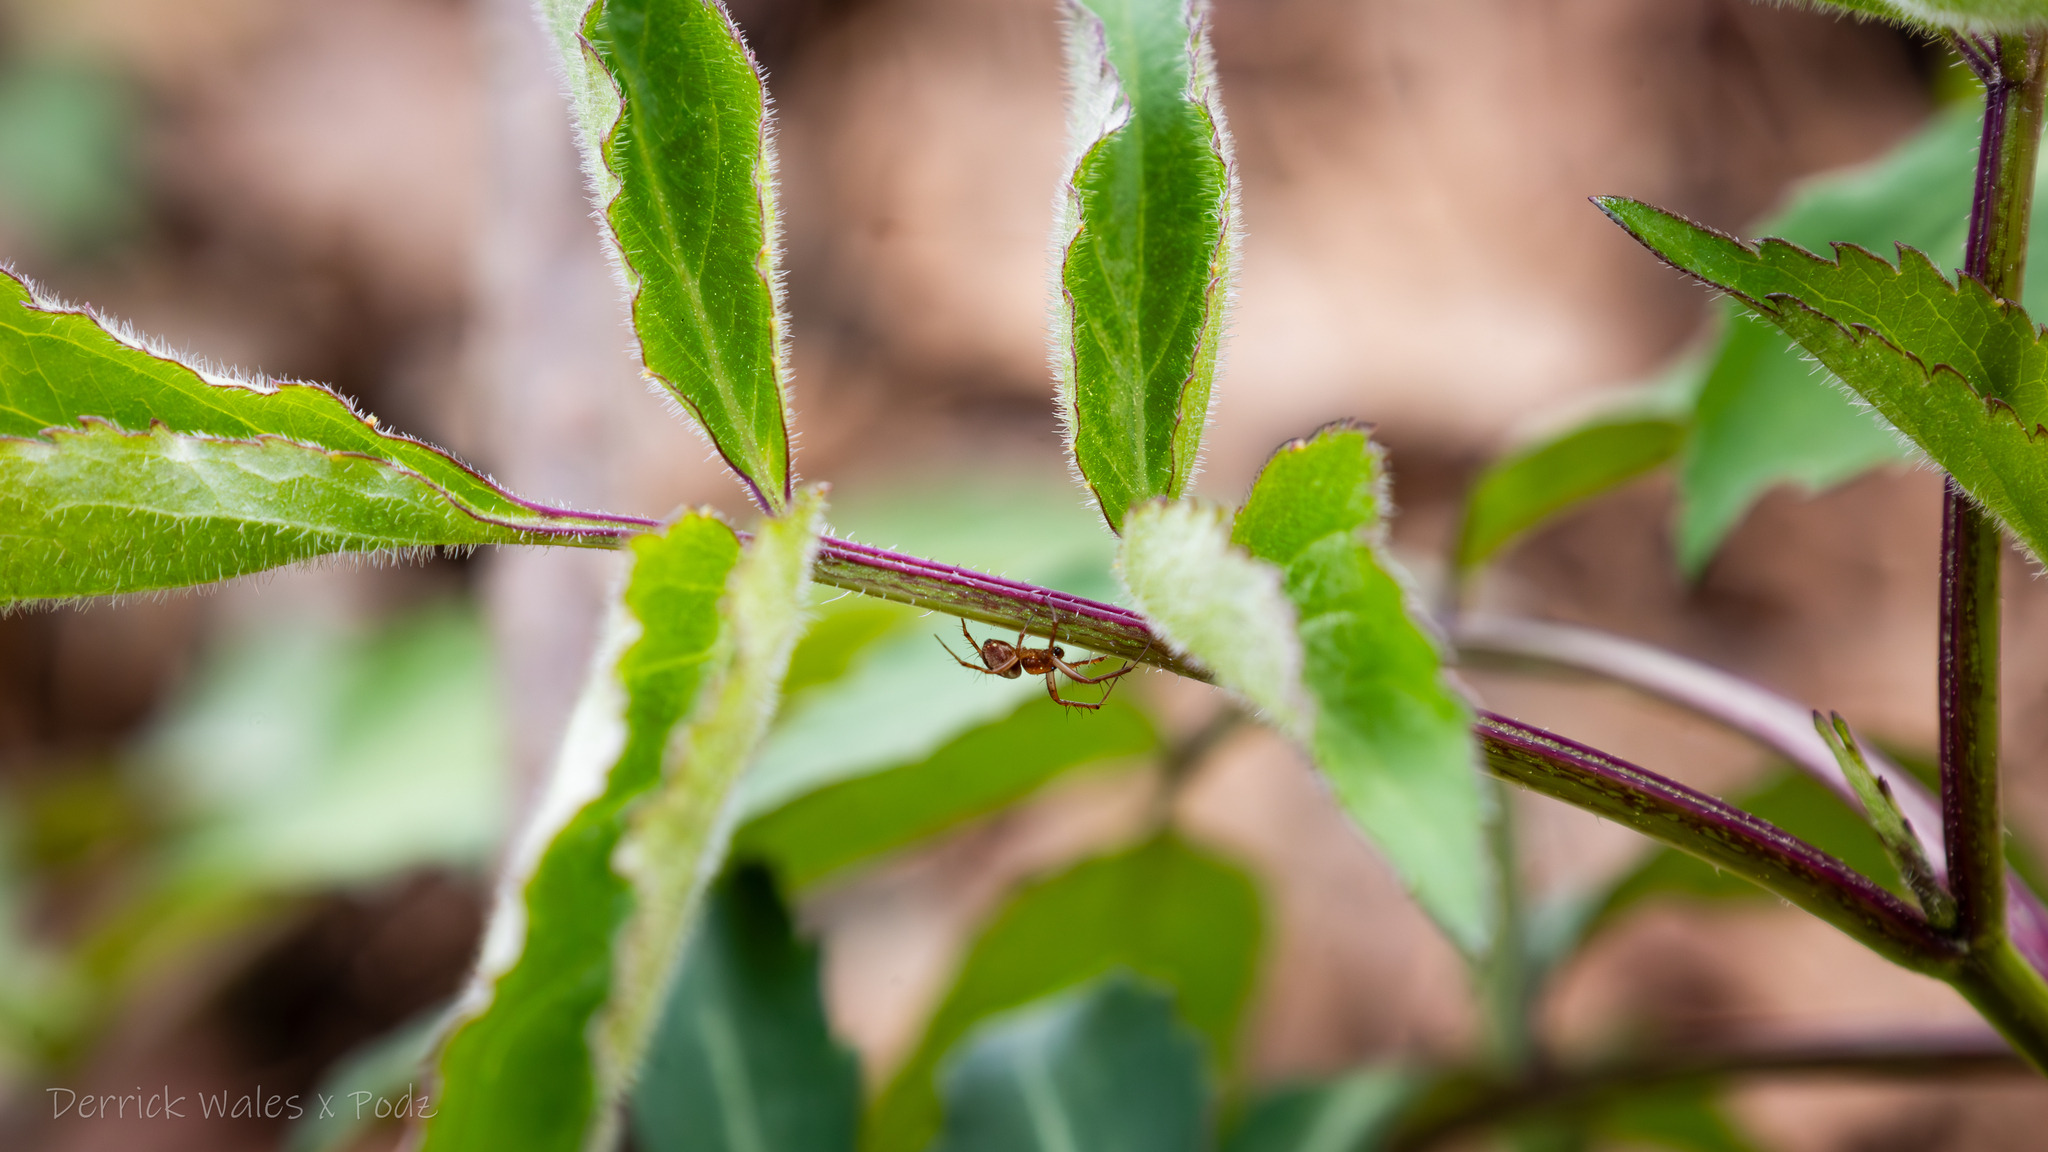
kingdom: Animalia
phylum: Arthropoda
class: Arachnida
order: Araneae
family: Araneidae
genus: Mangora
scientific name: Mangora placida
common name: Tuft-legged orbweaver
